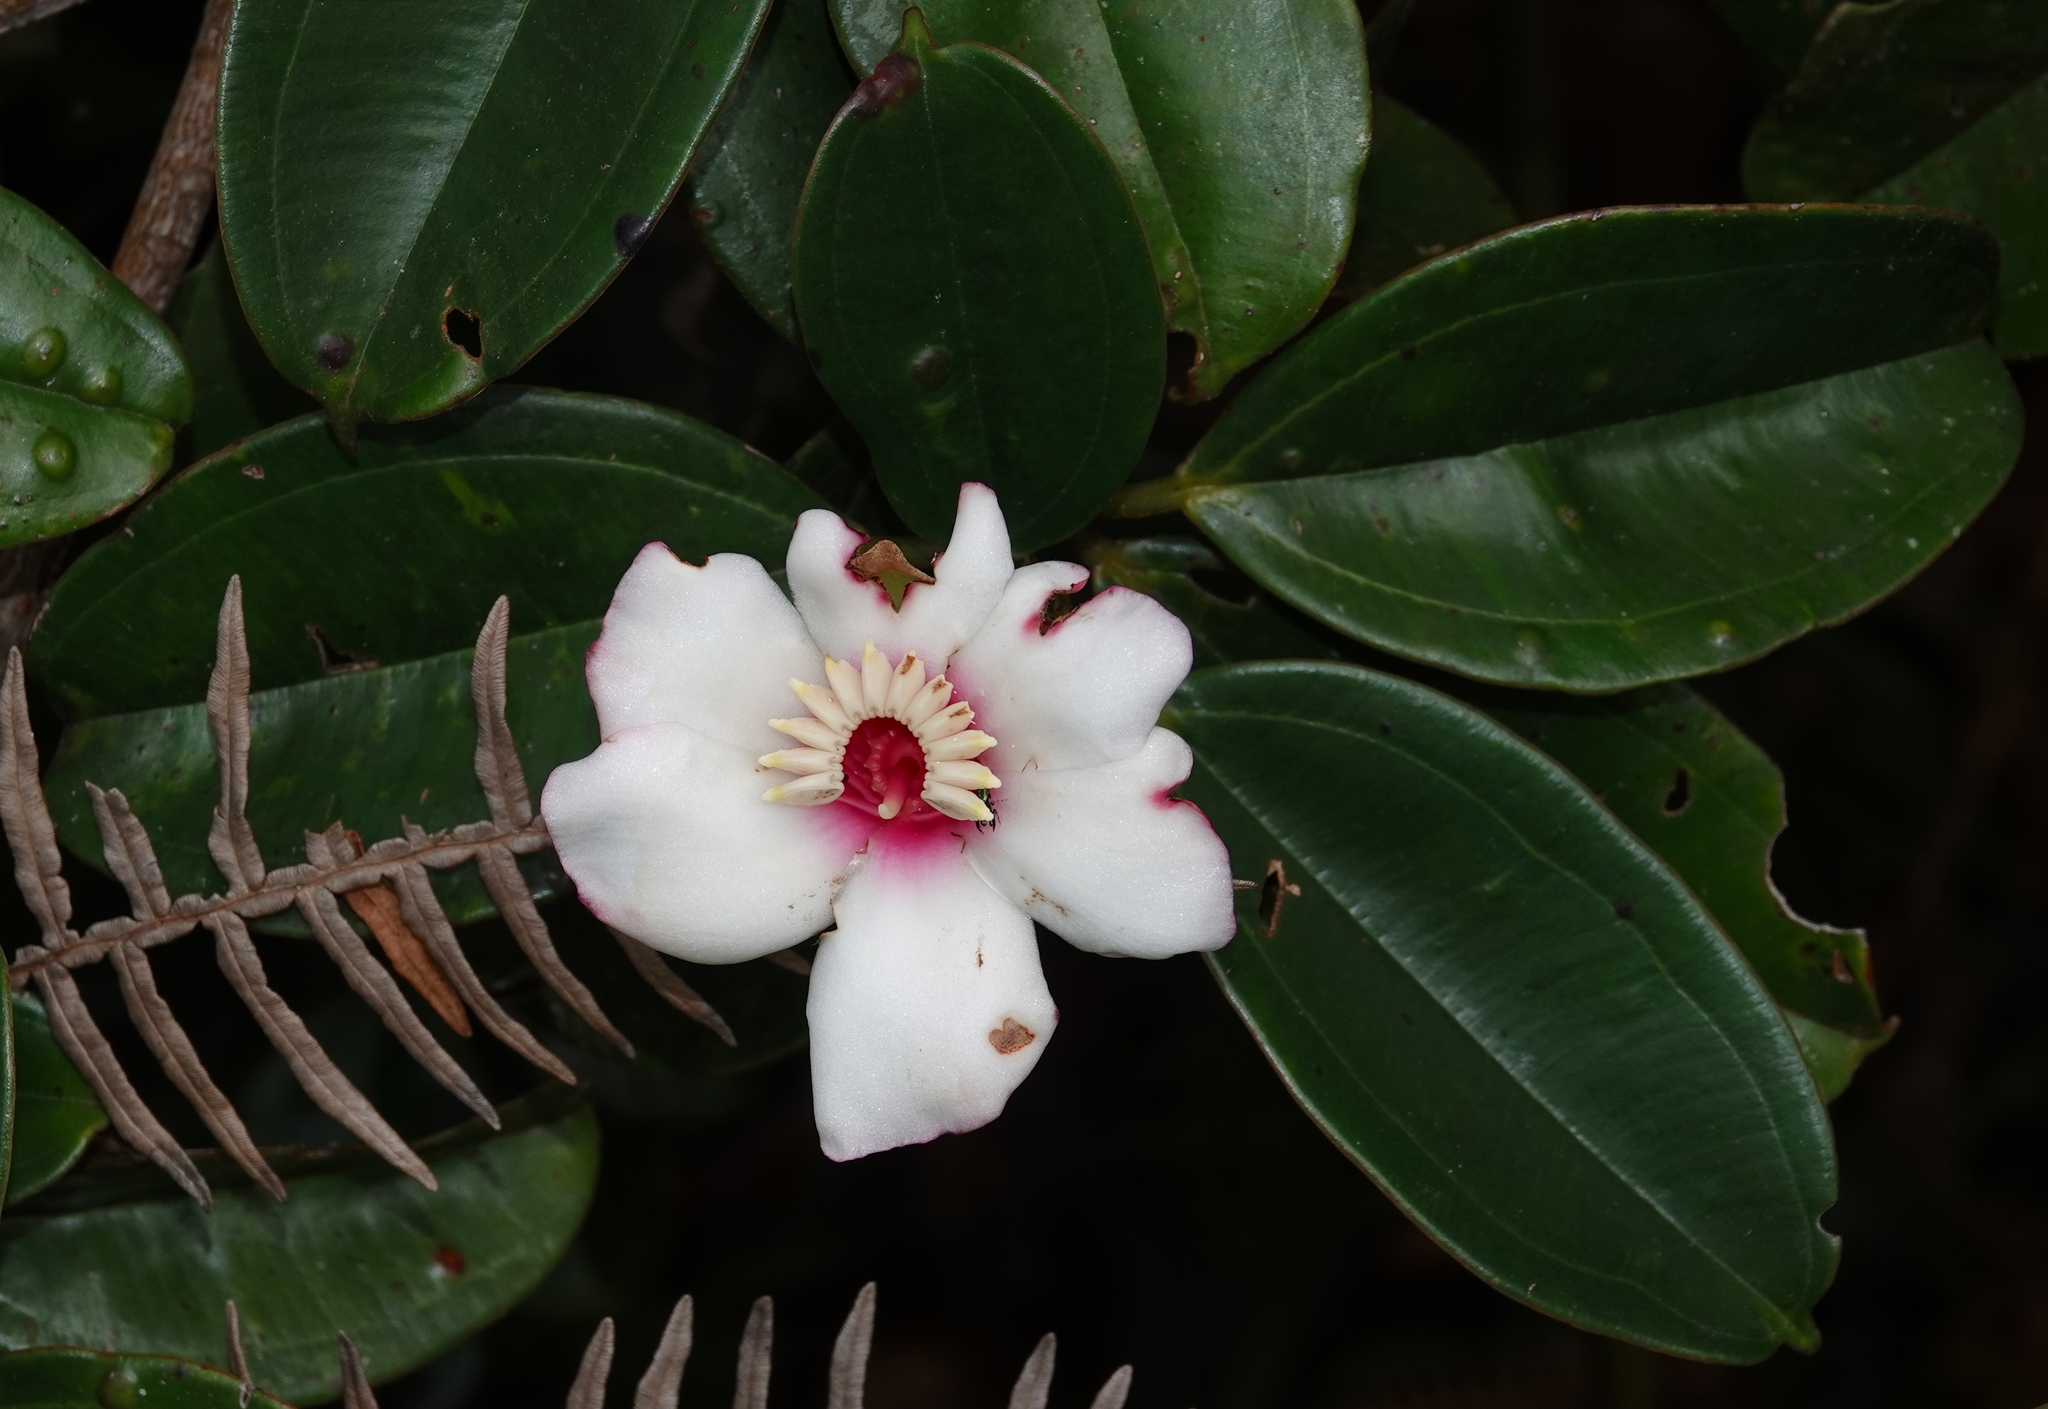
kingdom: Plantae
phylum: Tracheophyta
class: Magnoliopsida
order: Myrtales
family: Melastomataceae
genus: Blakea
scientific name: Blakea quadrangularis
